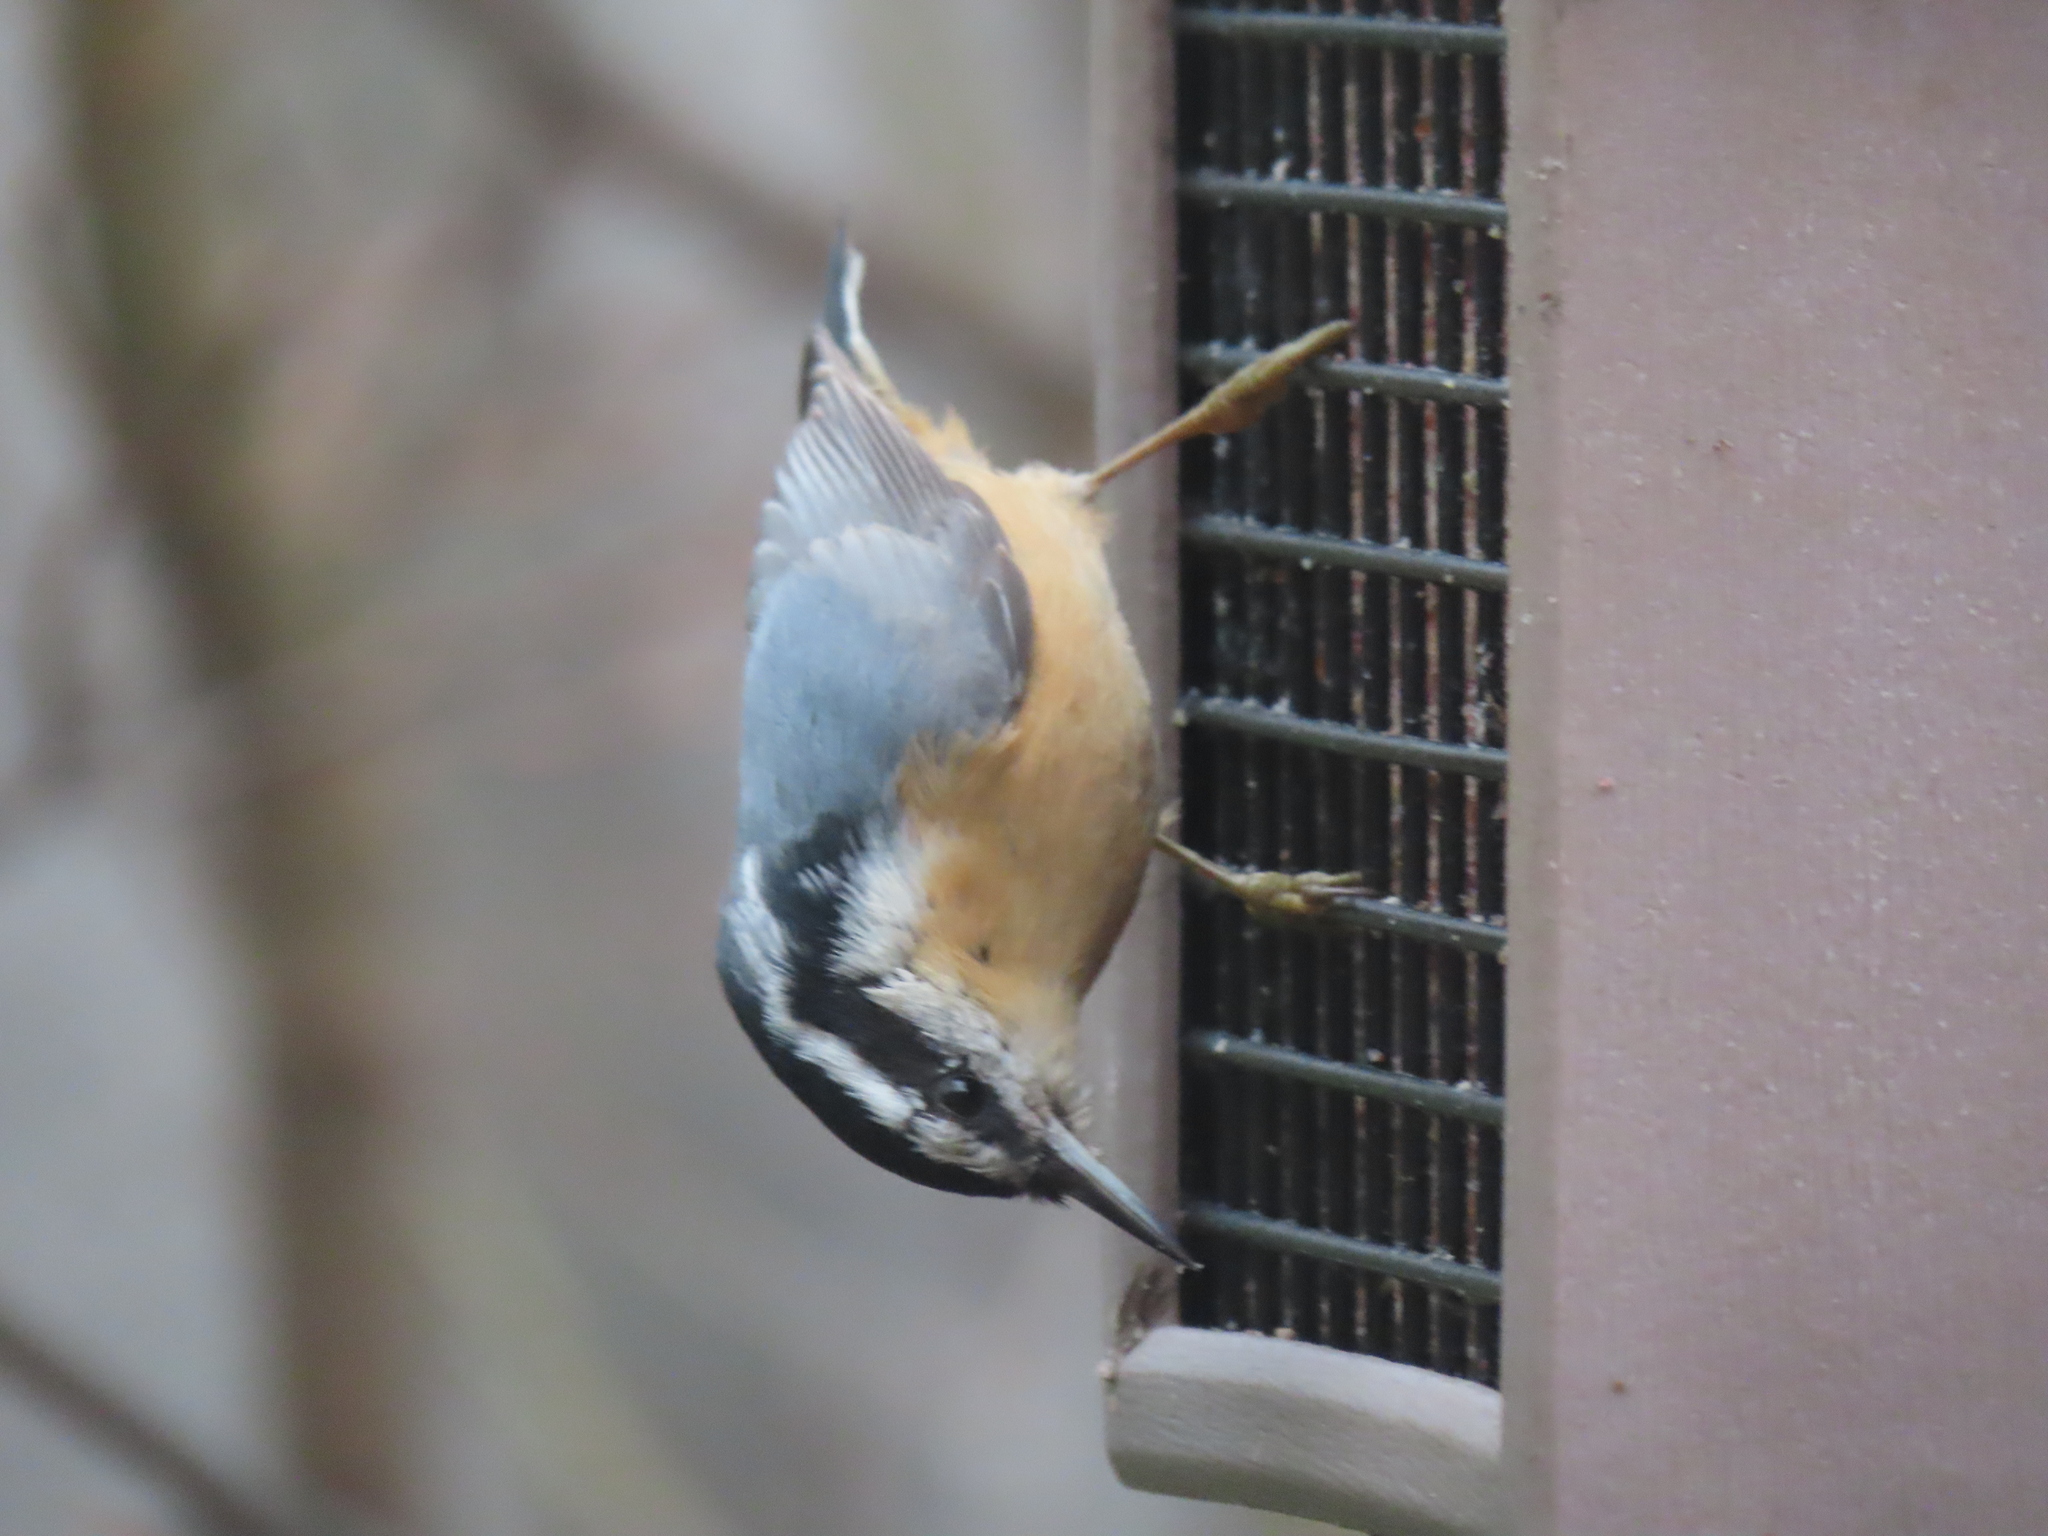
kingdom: Animalia
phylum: Chordata
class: Aves
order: Passeriformes
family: Sittidae
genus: Sitta
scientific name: Sitta canadensis
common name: Red-breasted nuthatch
